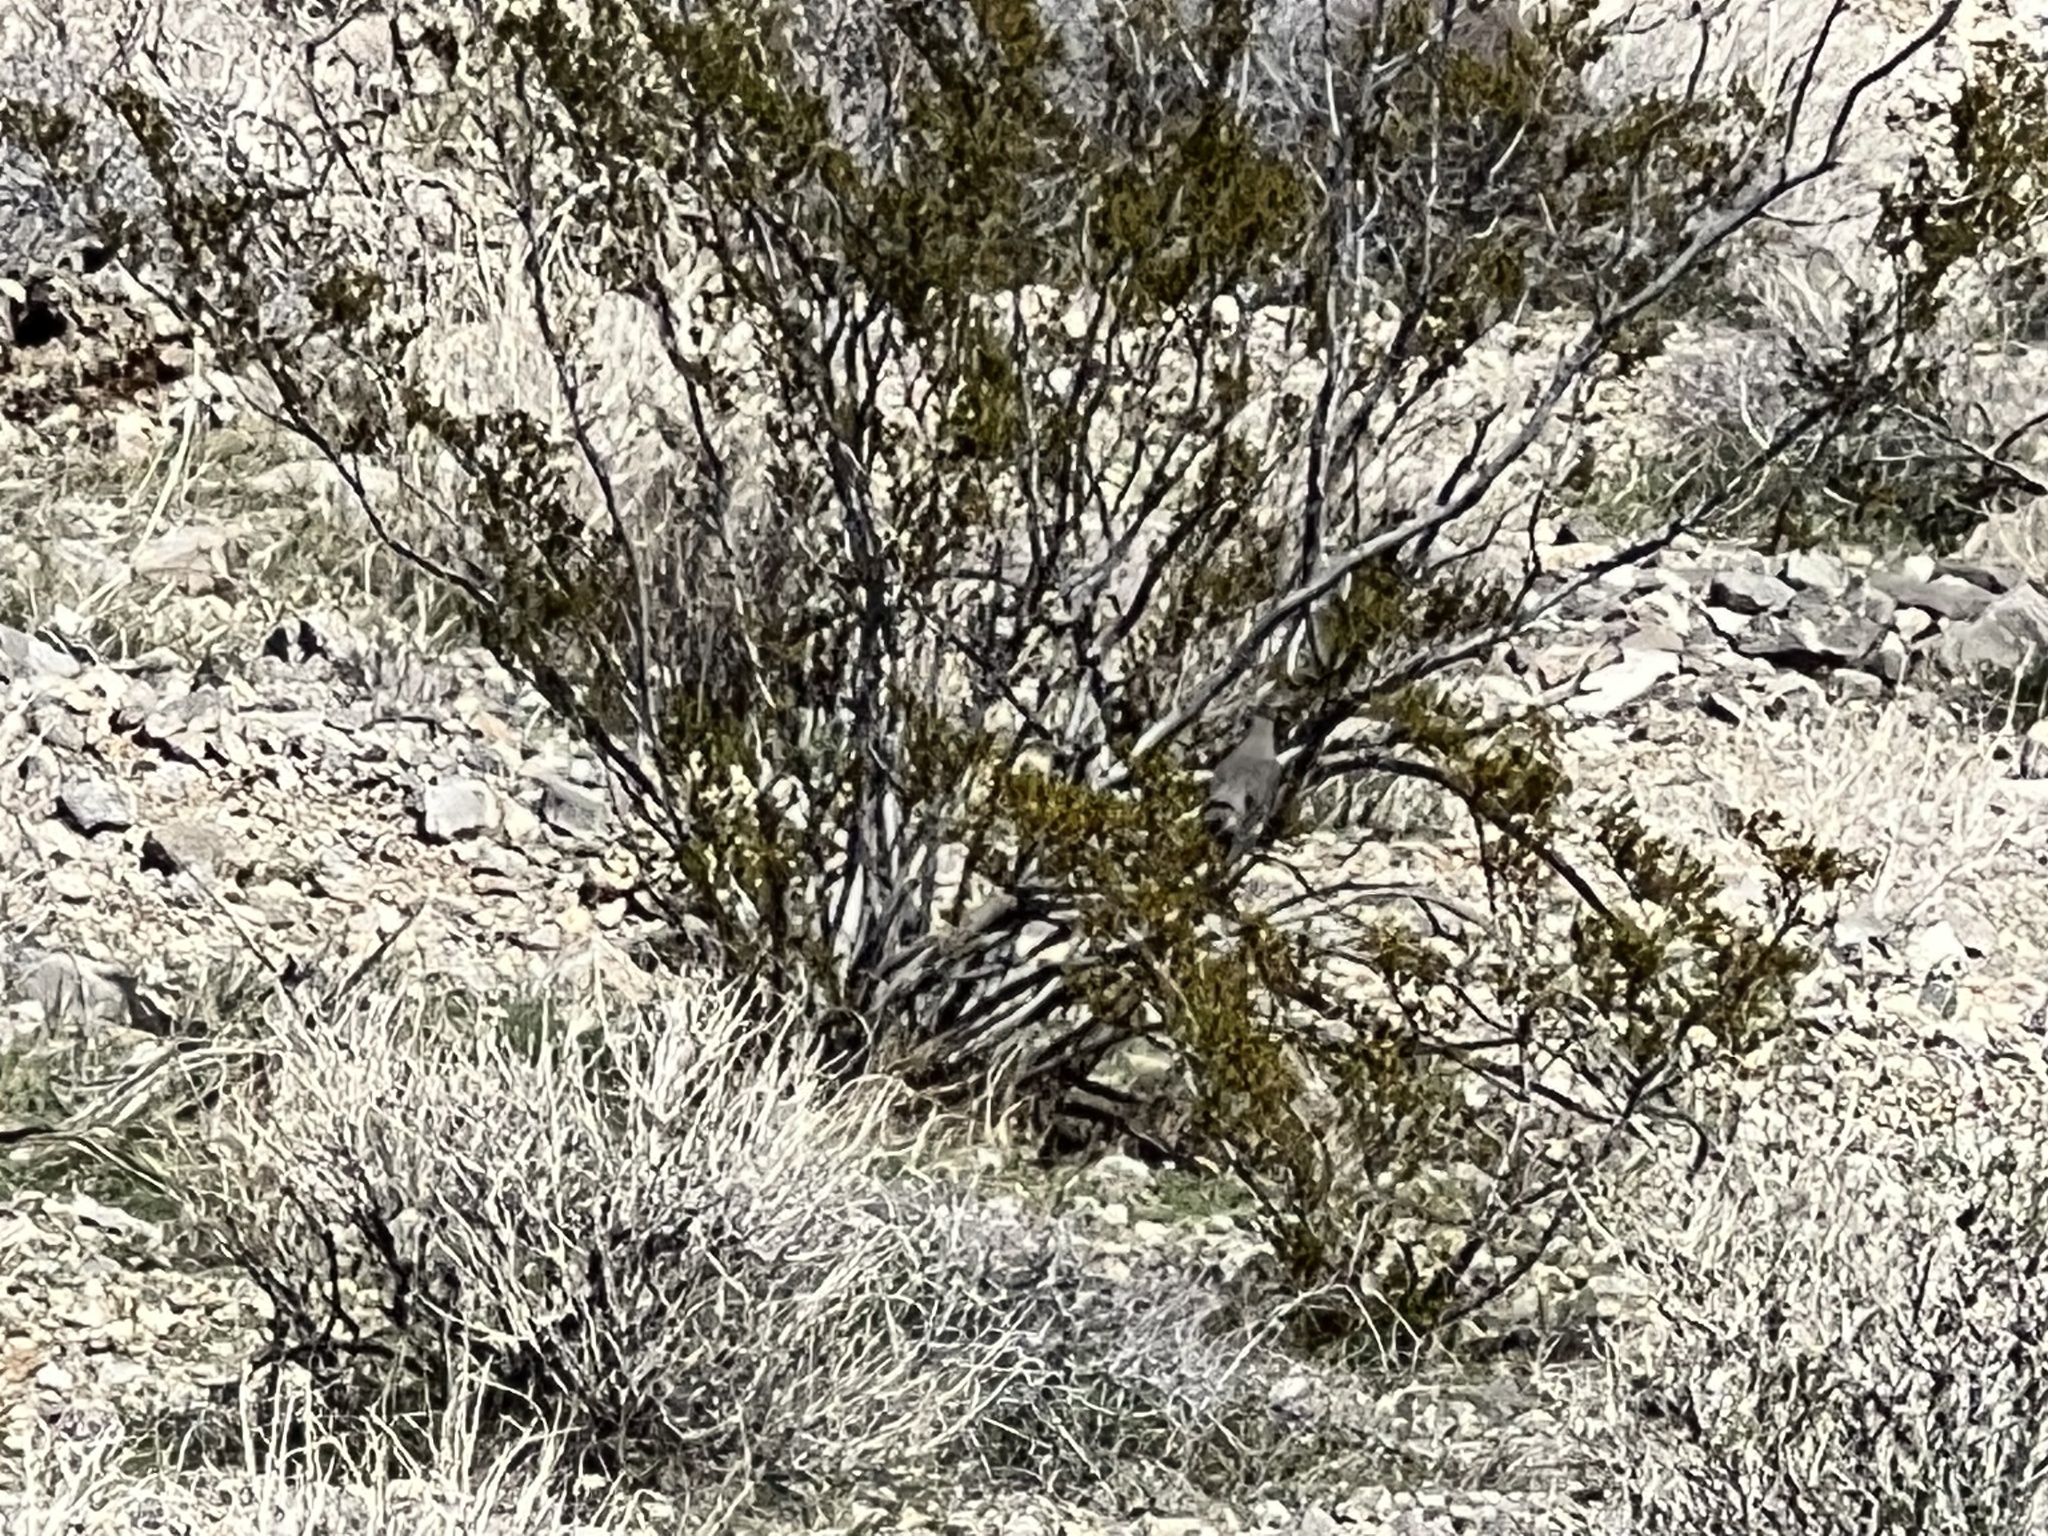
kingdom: Plantae
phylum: Tracheophyta
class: Magnoliopsida
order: Zygophyllales
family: Zygophyllaceae
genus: Larrea
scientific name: Larrea tridentata
